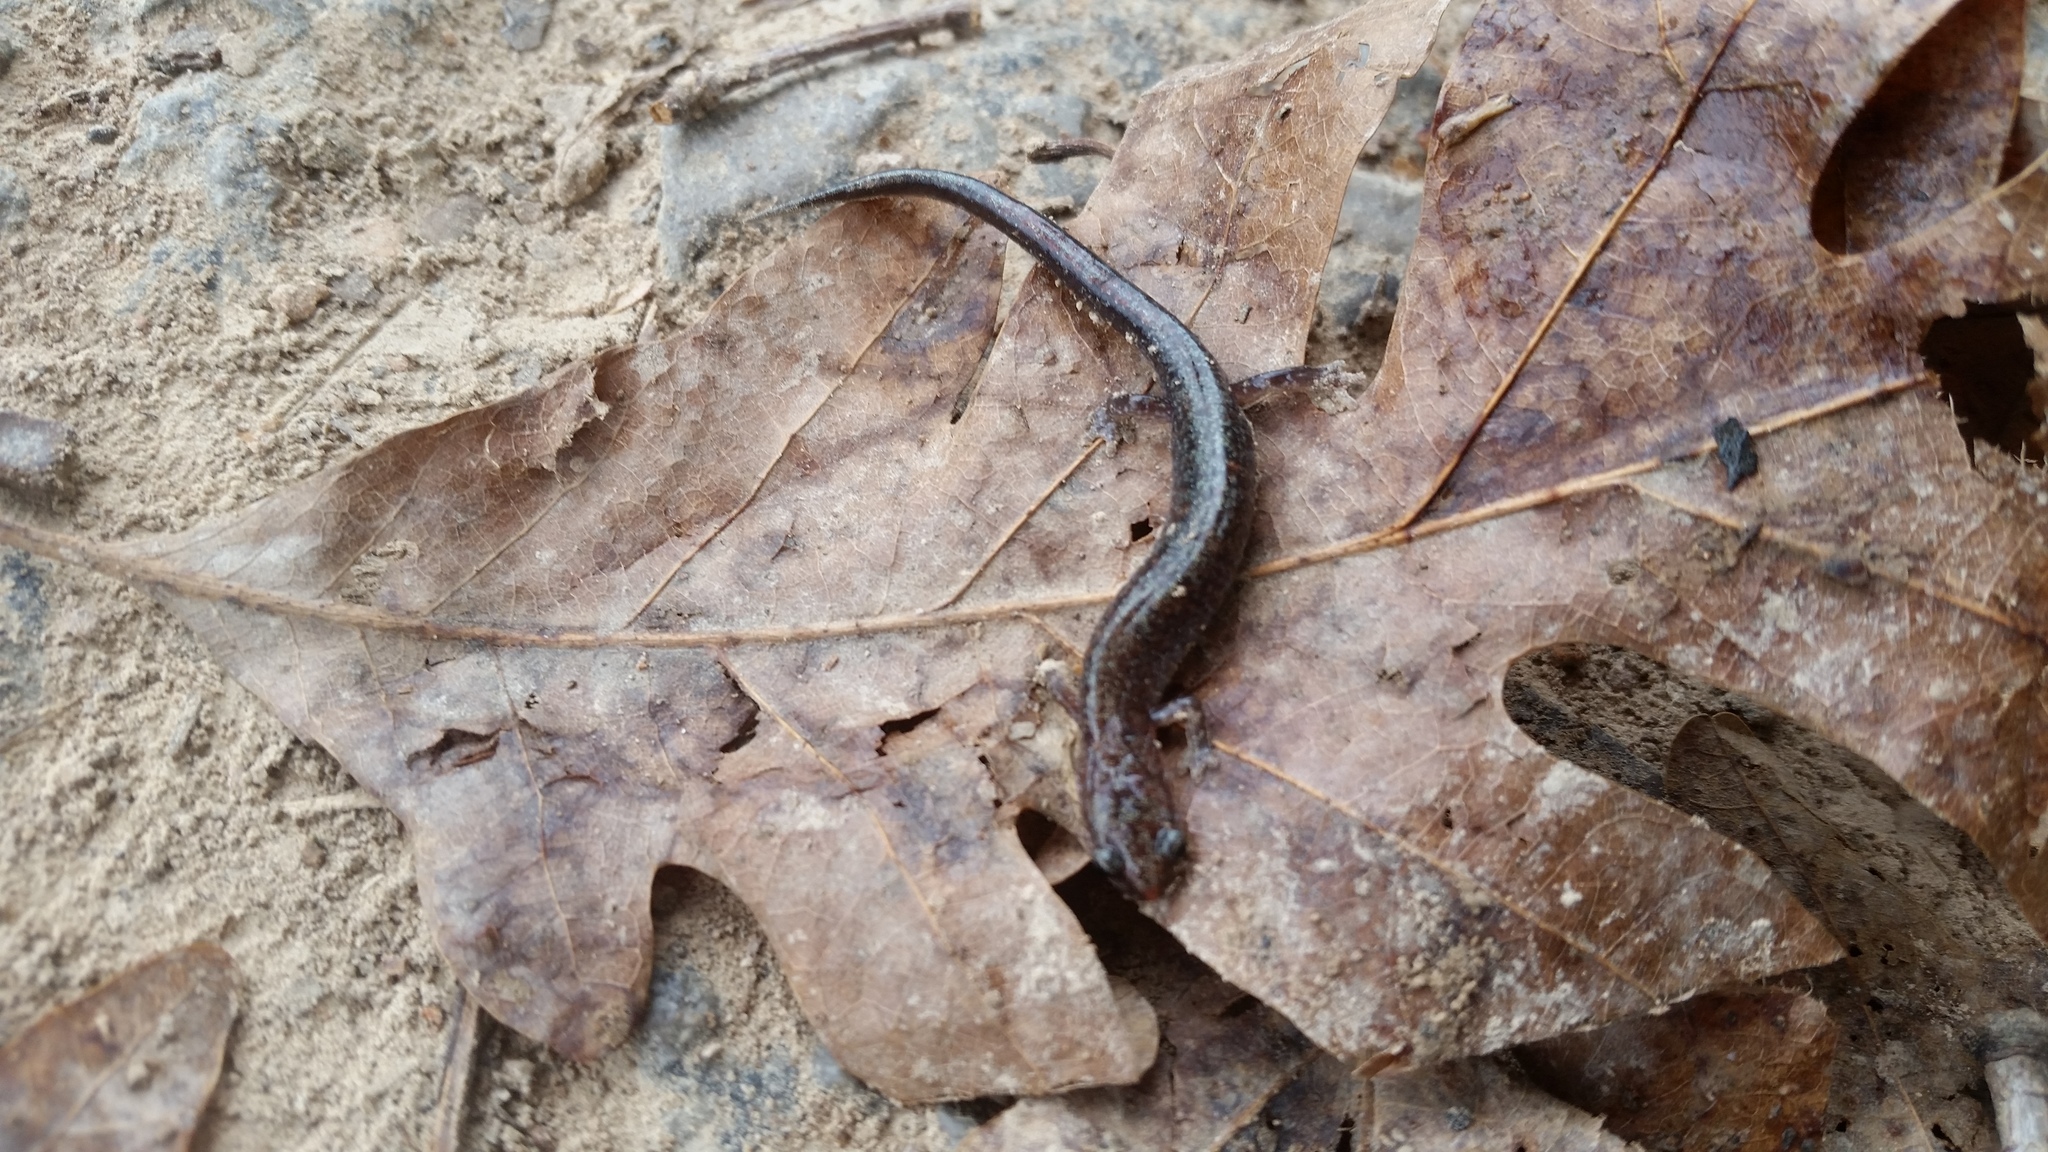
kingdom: Animalia
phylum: Chordata
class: Amphibia
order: Caudata
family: Plethodontidae
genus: Plethodon
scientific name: Plethodon dorsalis
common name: Northern zigzag salamander
